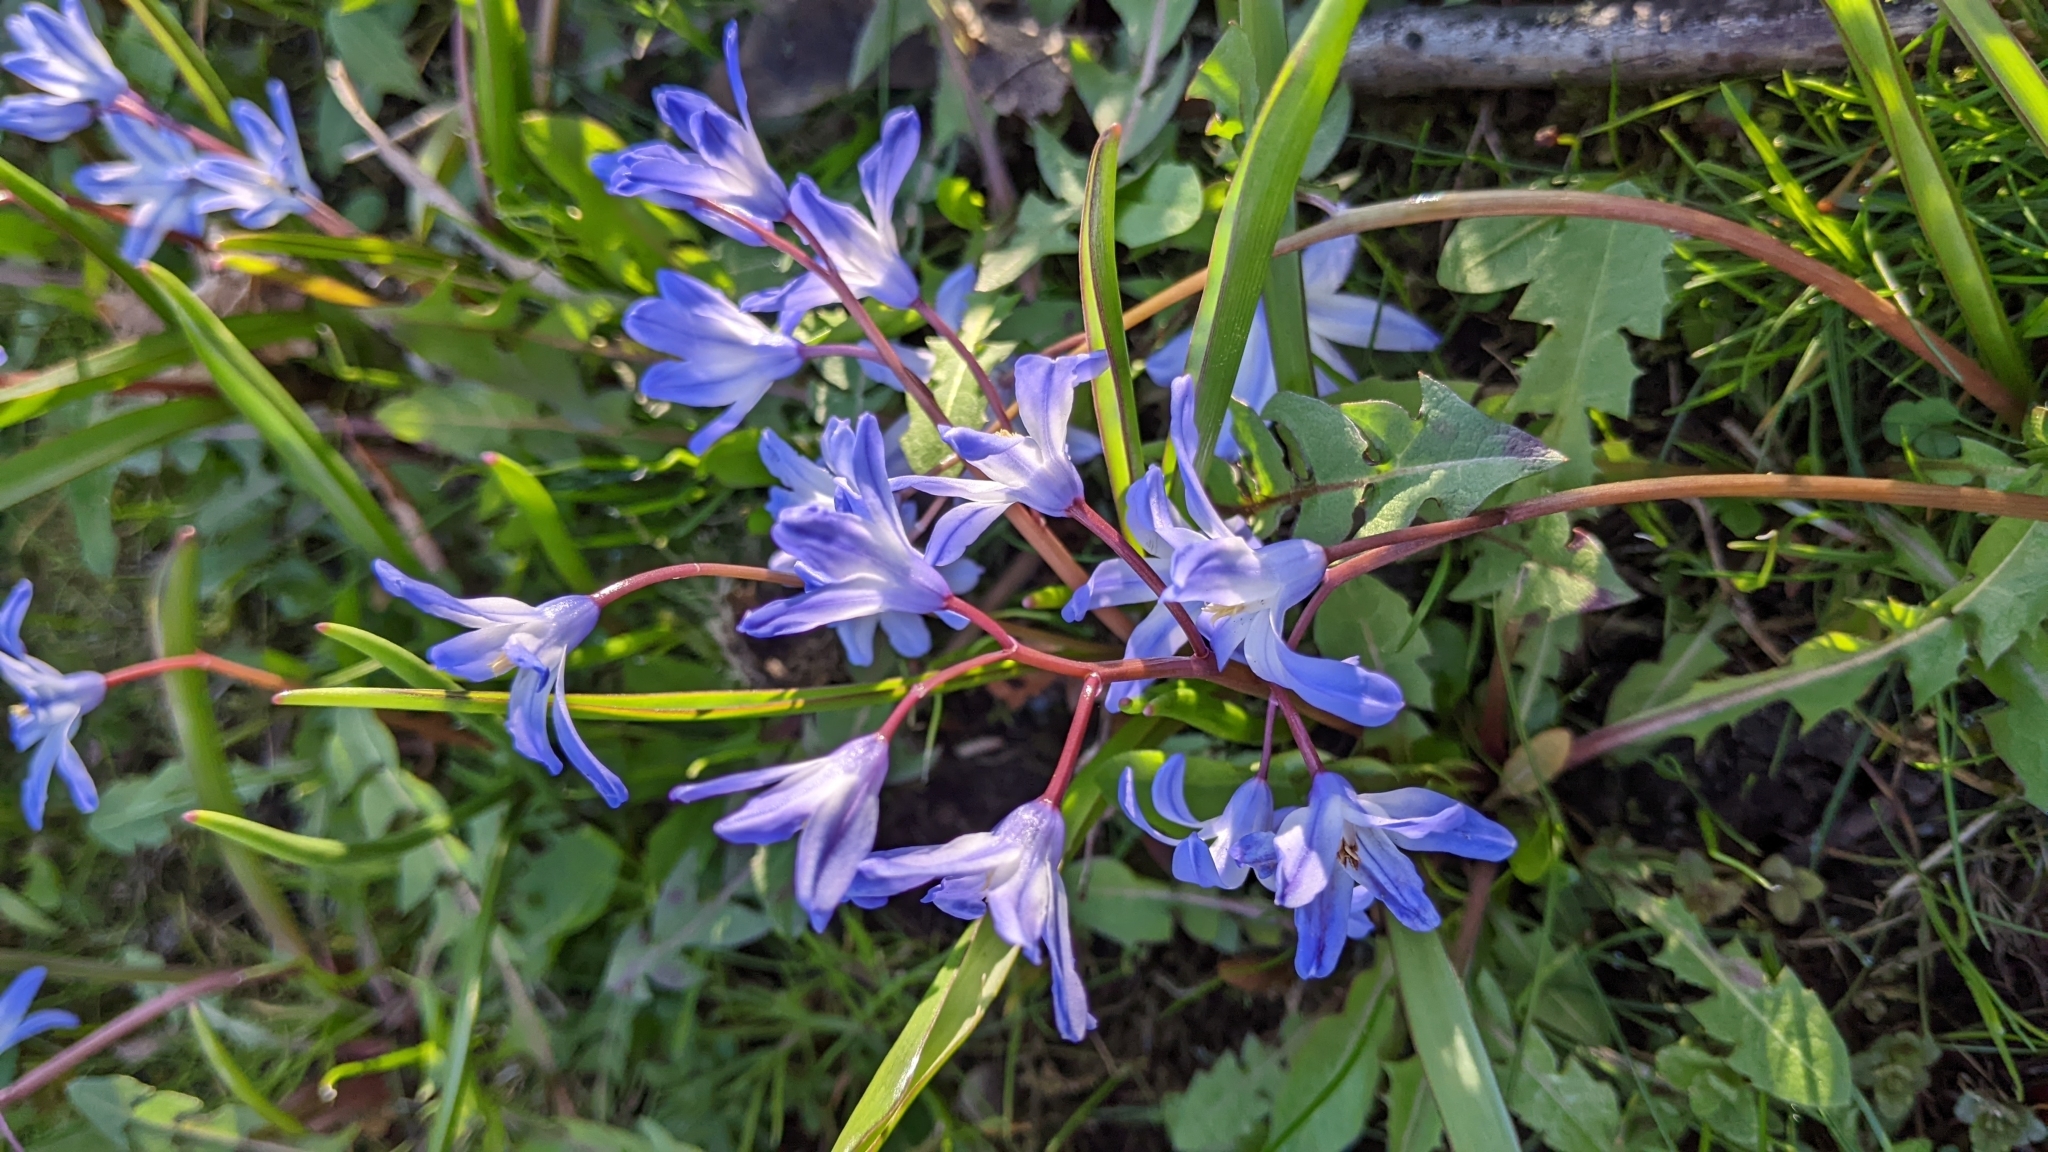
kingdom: Plantae
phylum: Tracheophyta
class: Liliopsida
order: Asparagales
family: Asparagaceae
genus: Scilla
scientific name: Scilla forbesii
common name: Glory-of-the-snow
